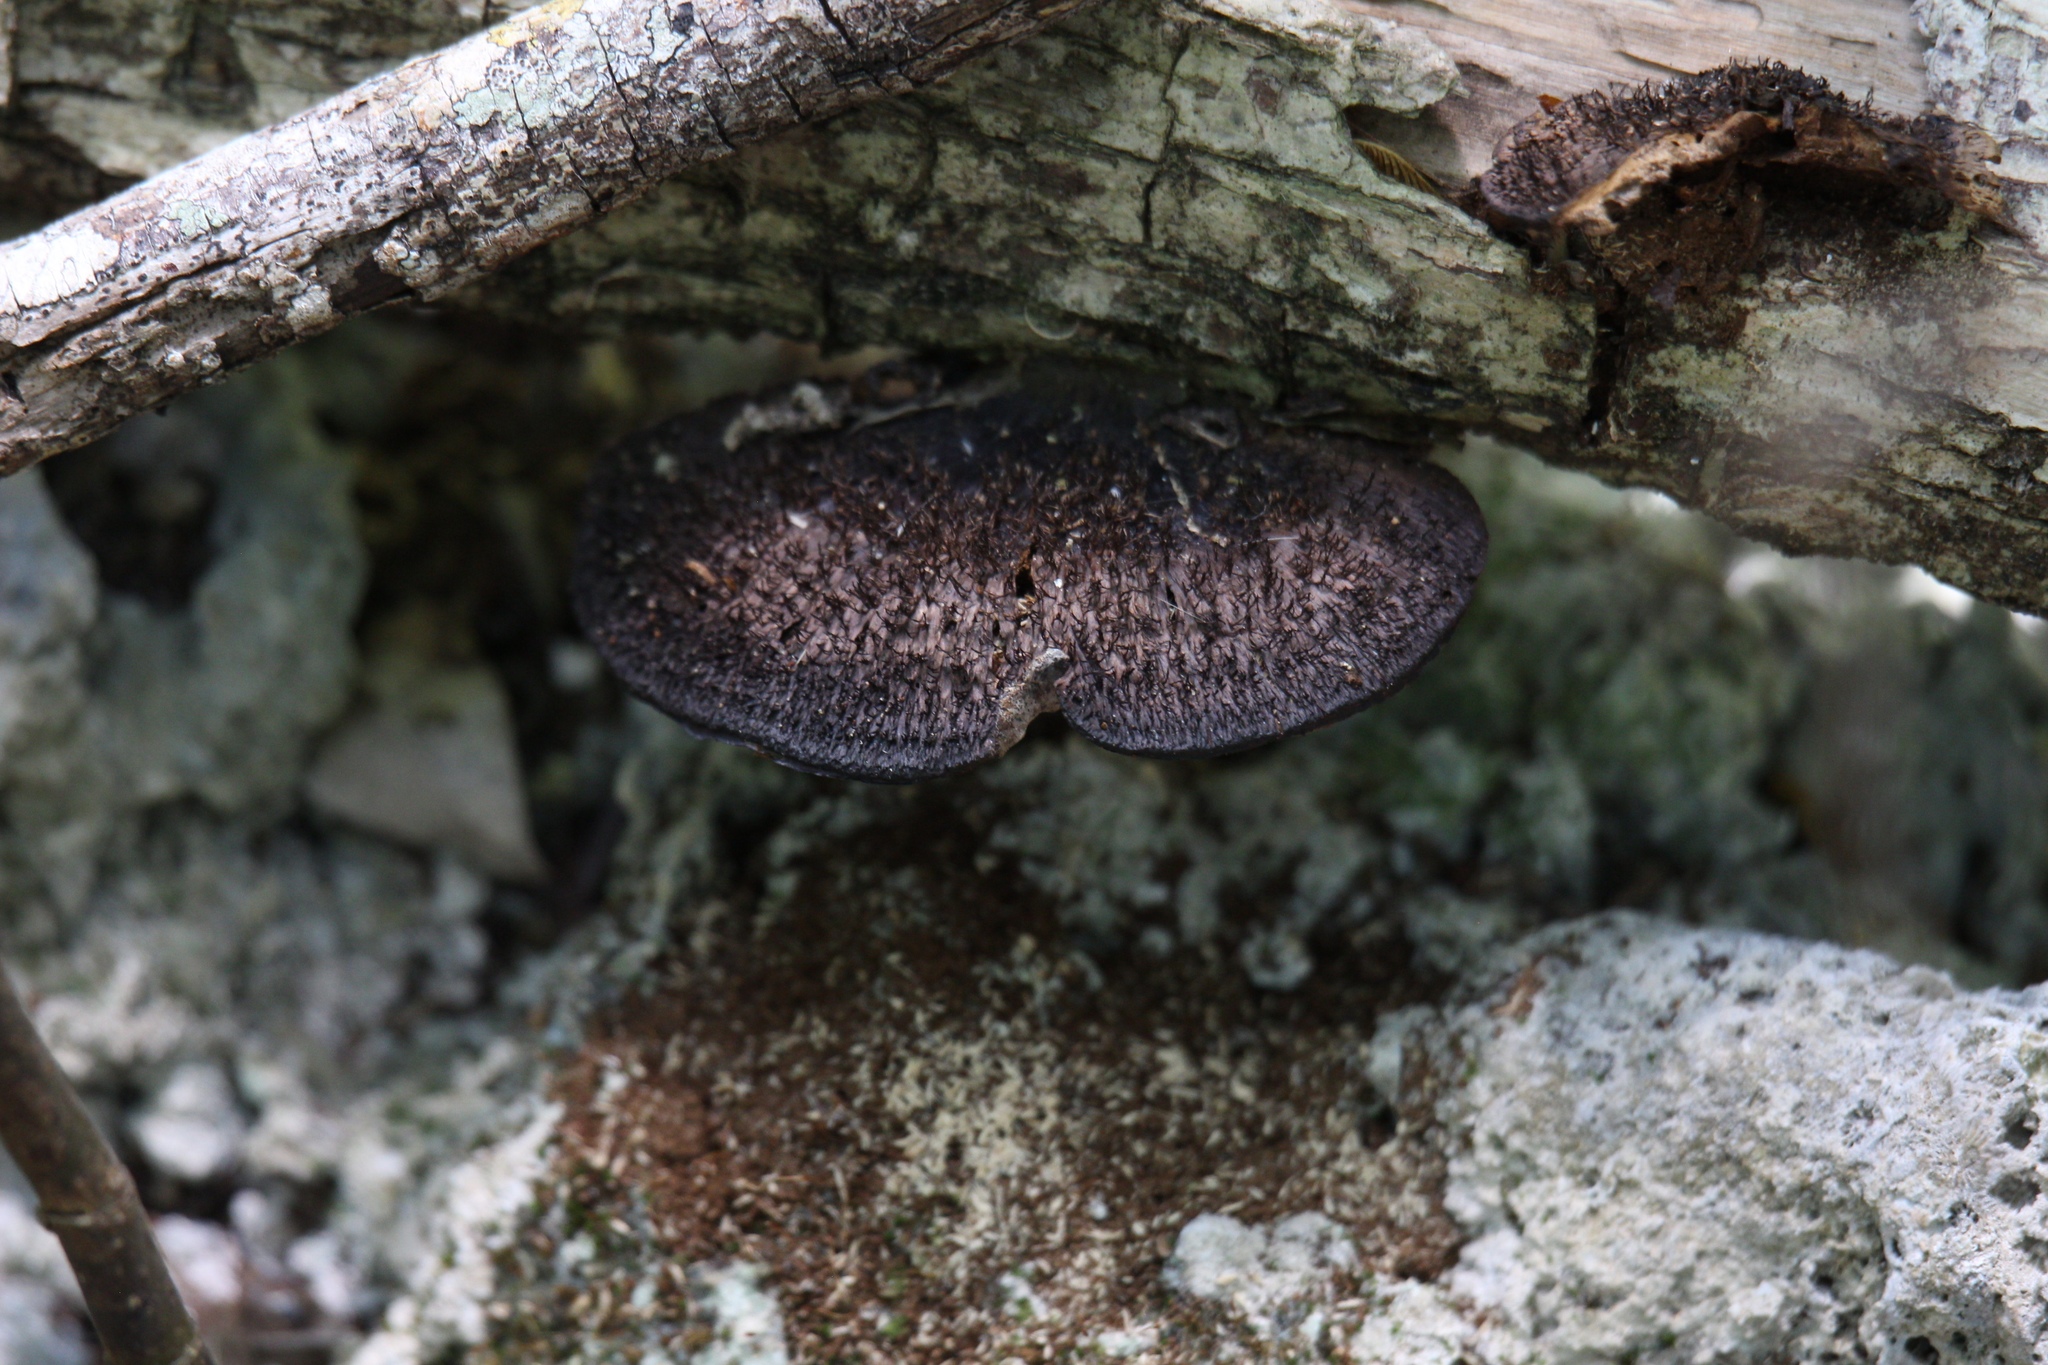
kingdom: Fungi
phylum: Basidiomycota
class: Agaricomycetes
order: Polyporales
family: Cerrenaceae
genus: Cerrena
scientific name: Cerrena hydnoides
